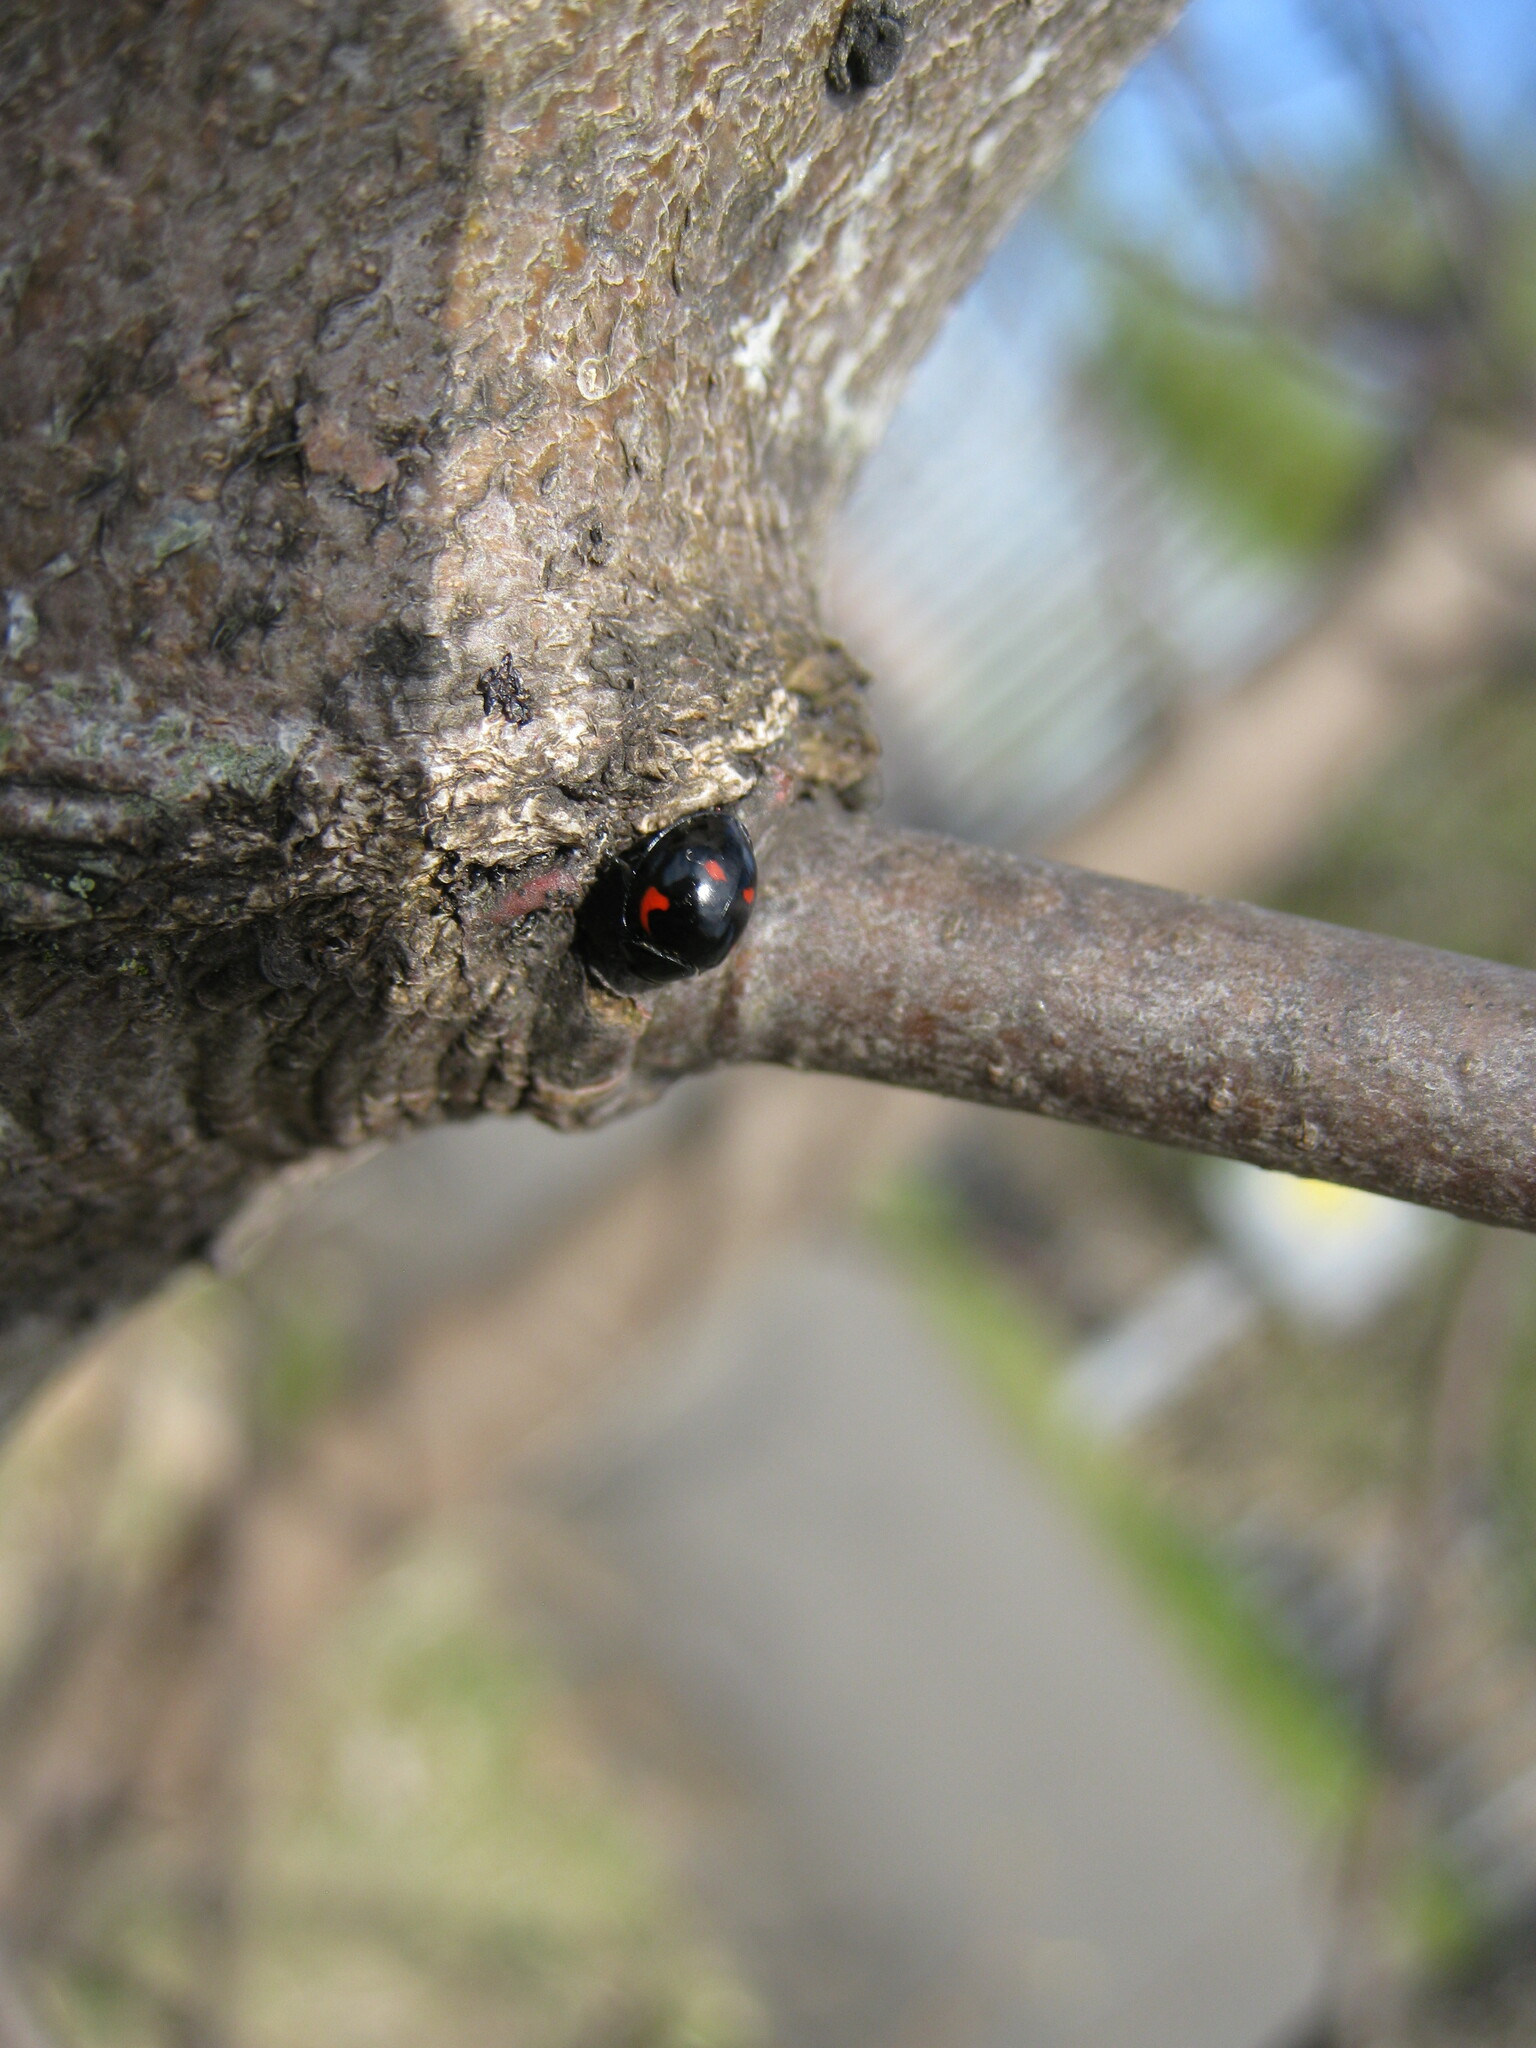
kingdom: Animalia
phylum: Arthropoda
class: Insecta
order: Coleoptera
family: Coccinellidae
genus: Brumus
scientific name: Brumus quadripustulatus
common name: Ladybird beetle
